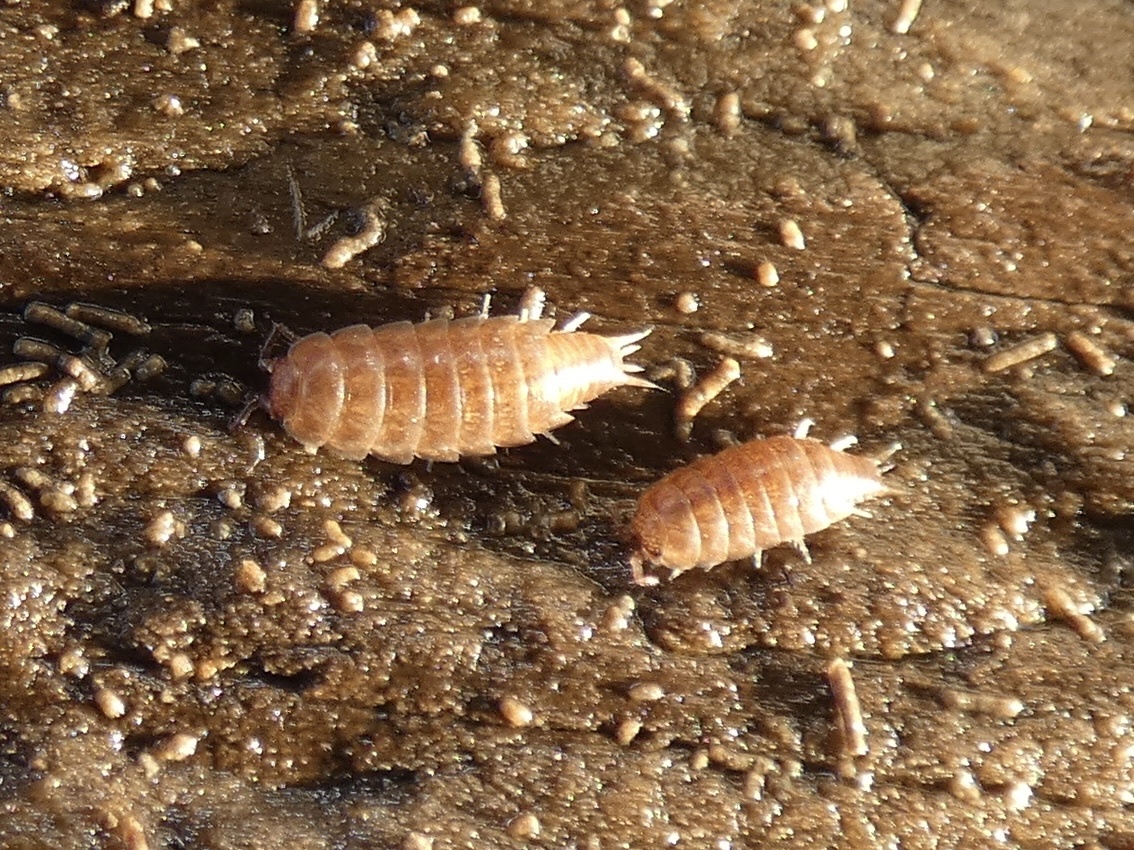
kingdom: Animalia
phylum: Arthropoda
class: Malacostraca
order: Isopoda
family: Trichoniscidae
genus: Trichoniscus
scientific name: Trichoniscus
